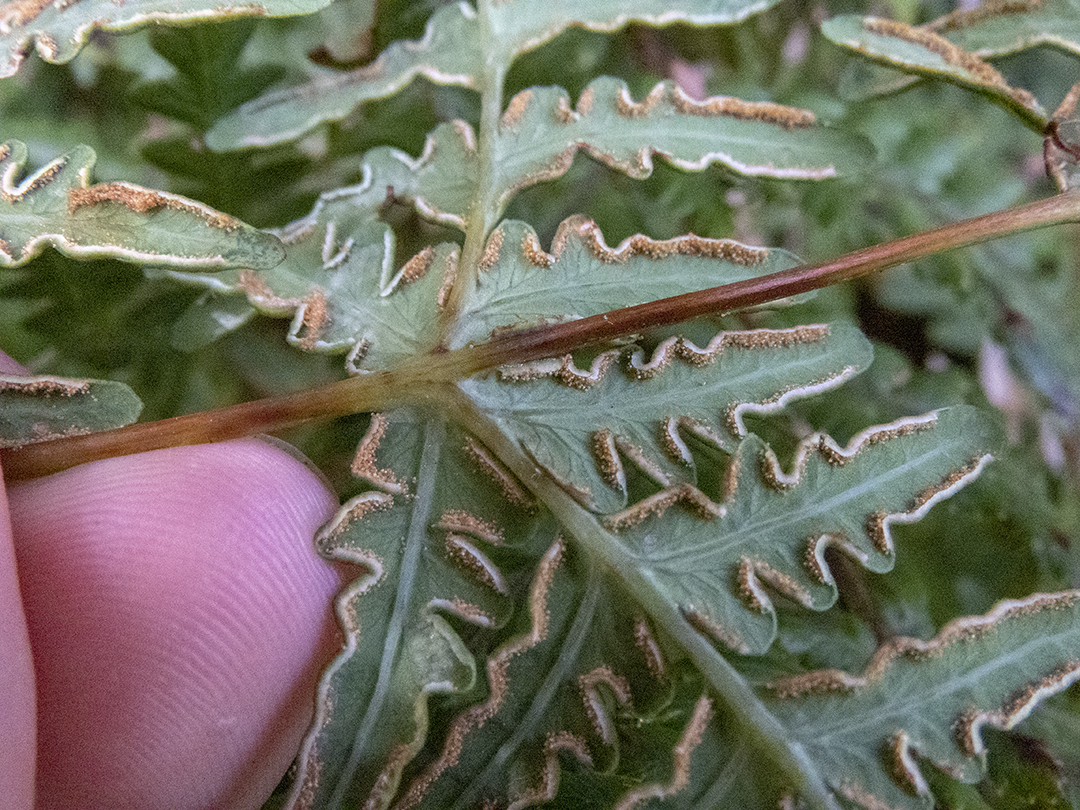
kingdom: Plantae
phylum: Tracheophyta
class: Polypodiopsida
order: Polypodiales
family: Dennstaedtiaceae
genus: Histiopteris
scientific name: Histiopteris incisa
